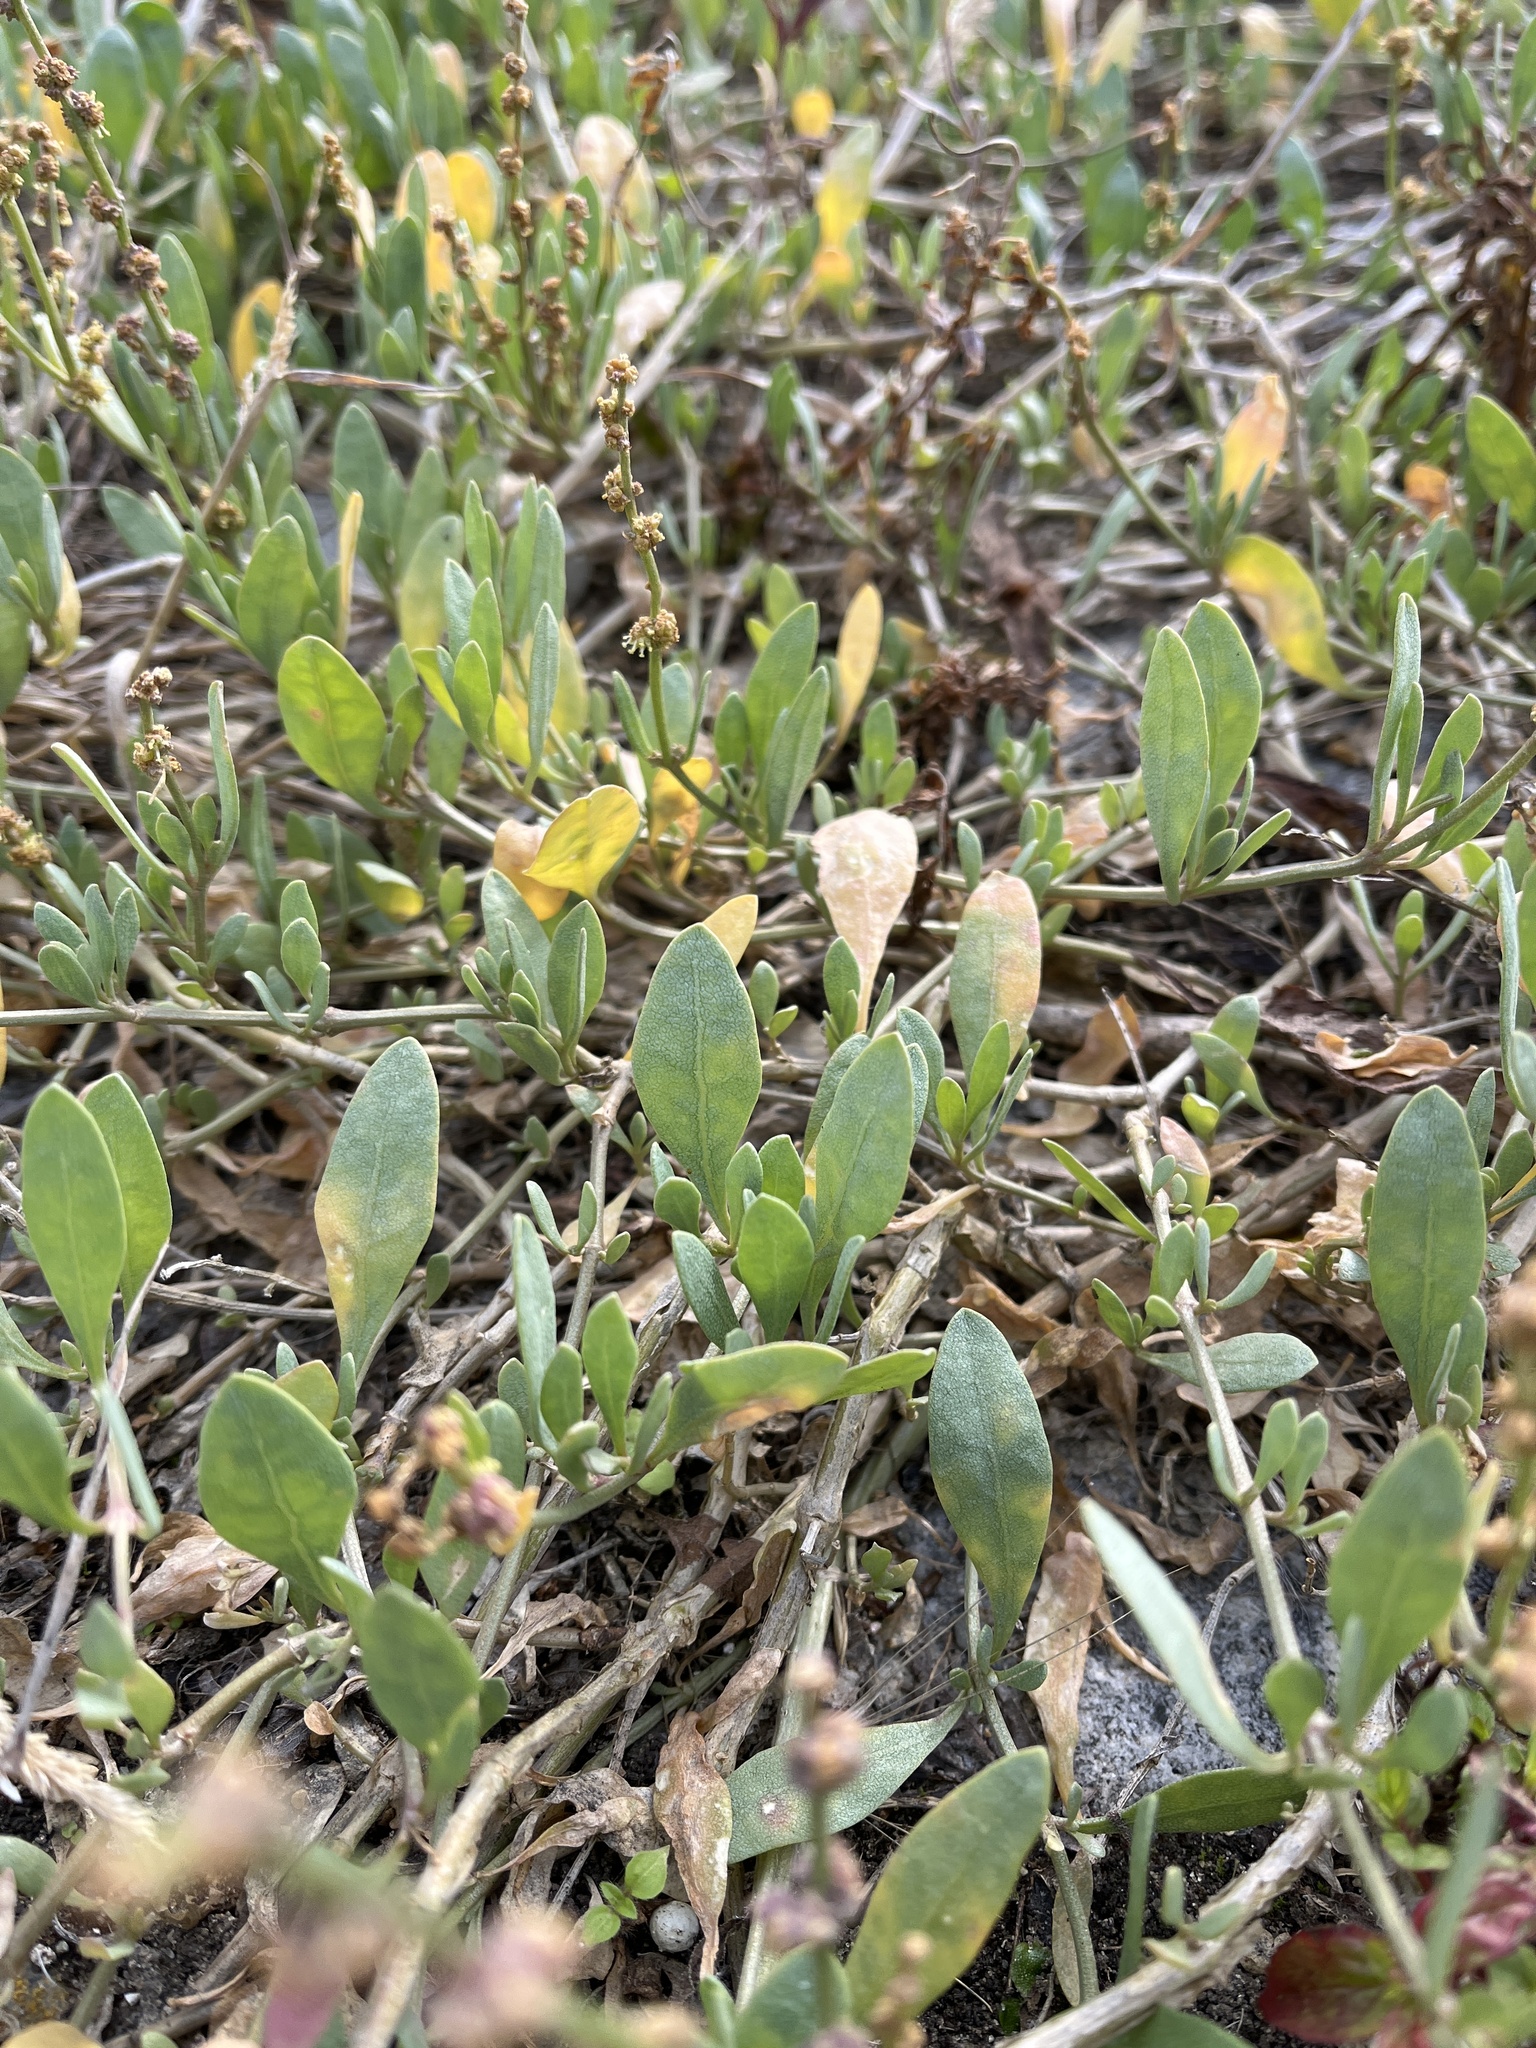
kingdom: Plantae
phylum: Tracheophyta
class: Magnoliopsida
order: Caryophyllales
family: Amaranthaceae
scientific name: Amaranthaceae
